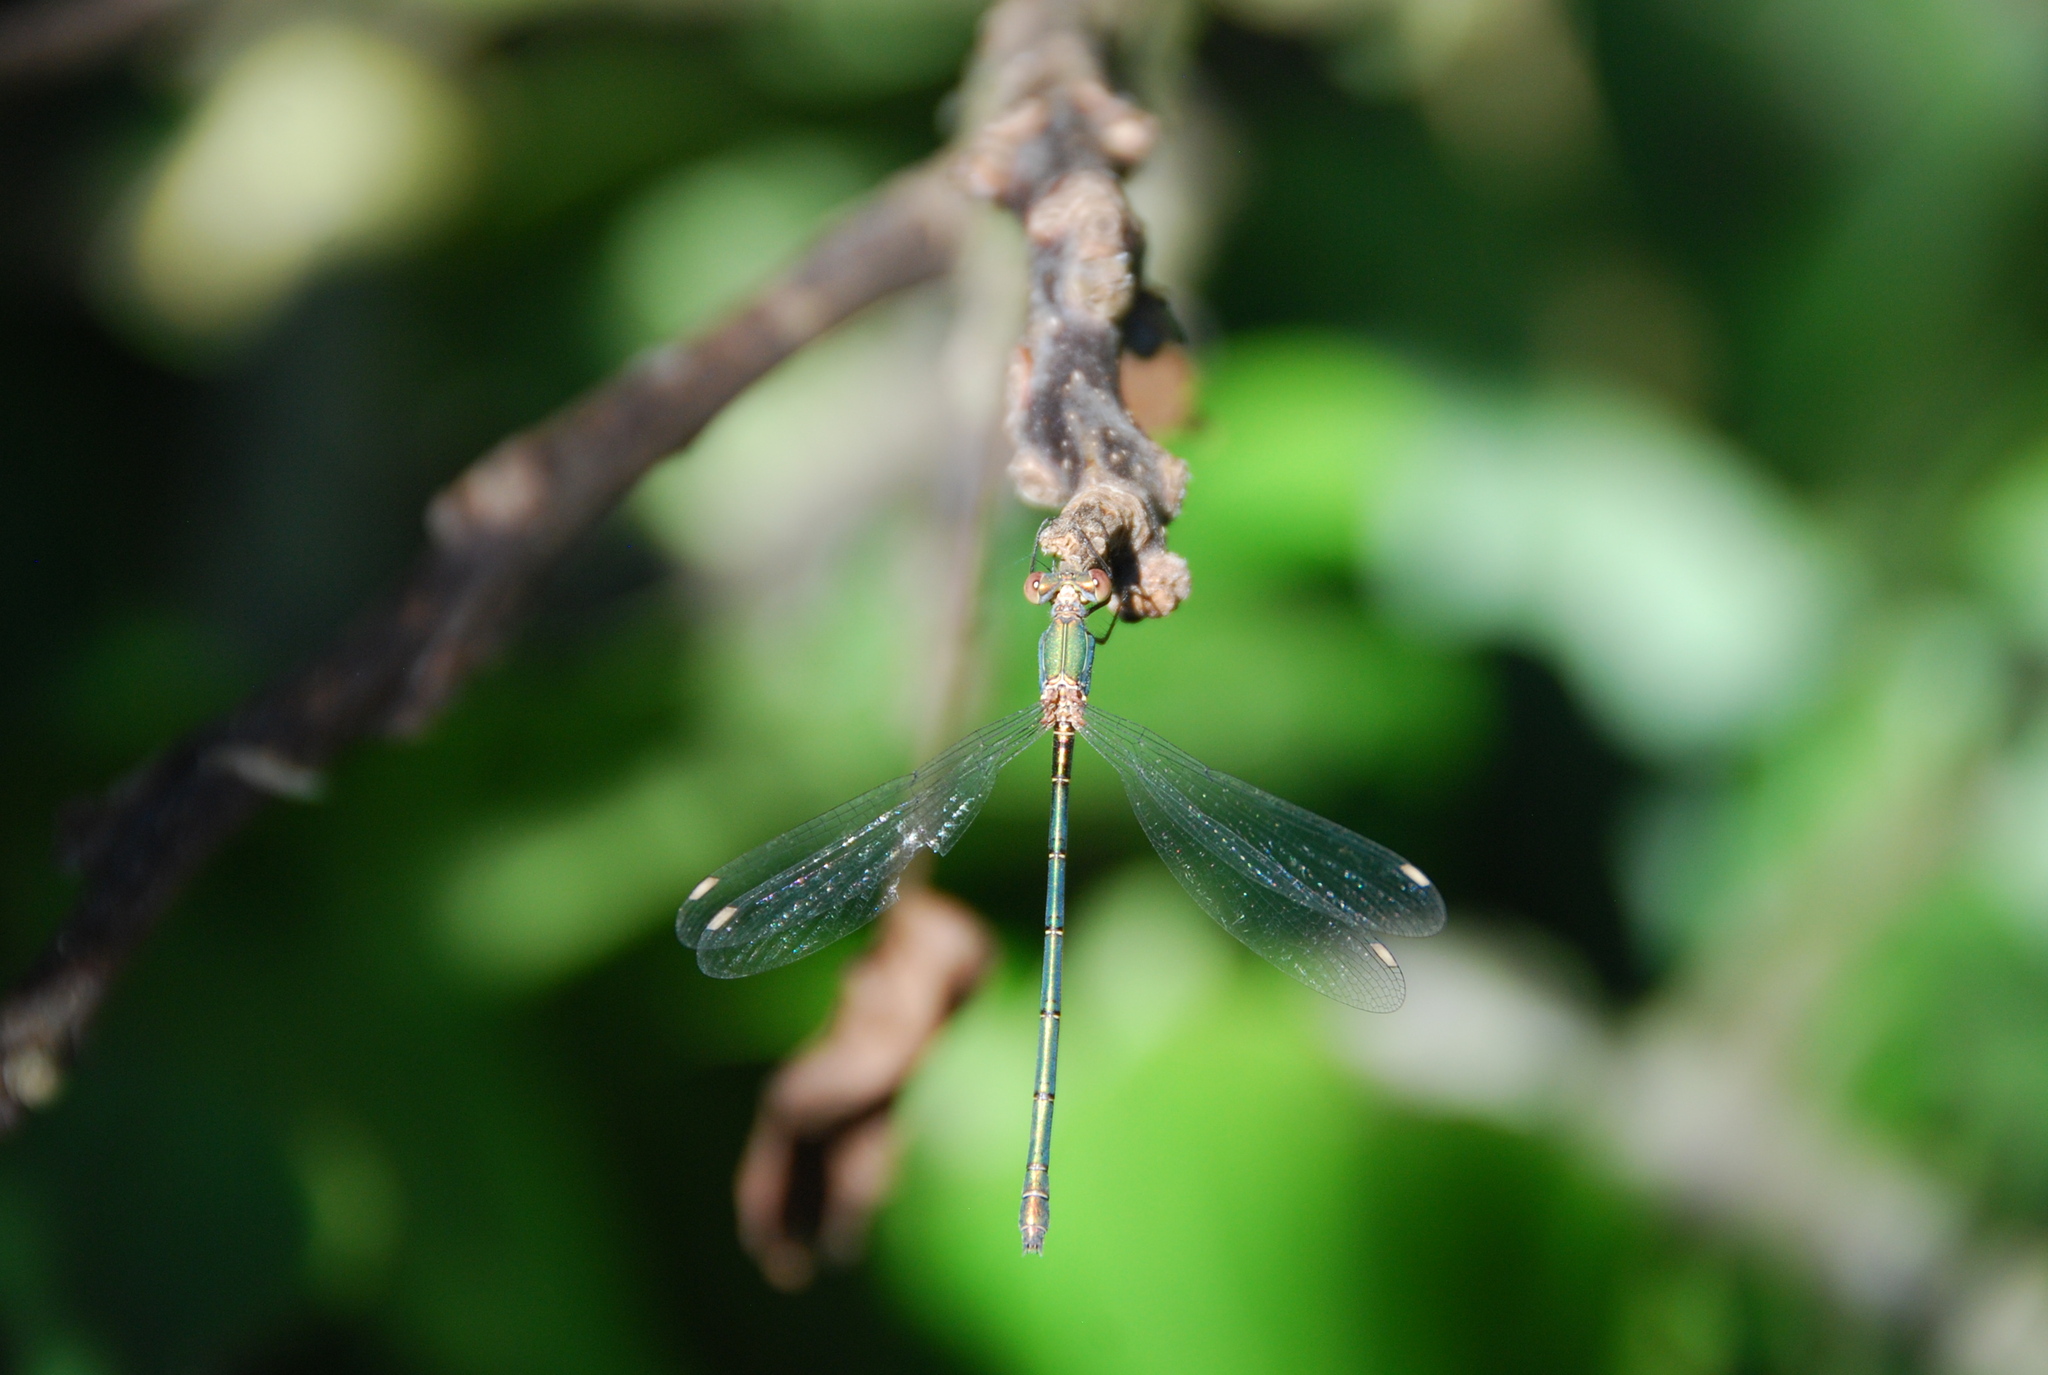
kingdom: Animalia
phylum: Arthropoda
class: Insecta
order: Odonata
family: Lestidae
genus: Chalcolestes
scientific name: Chalcolestes viridis
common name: Green emerald damselfly
